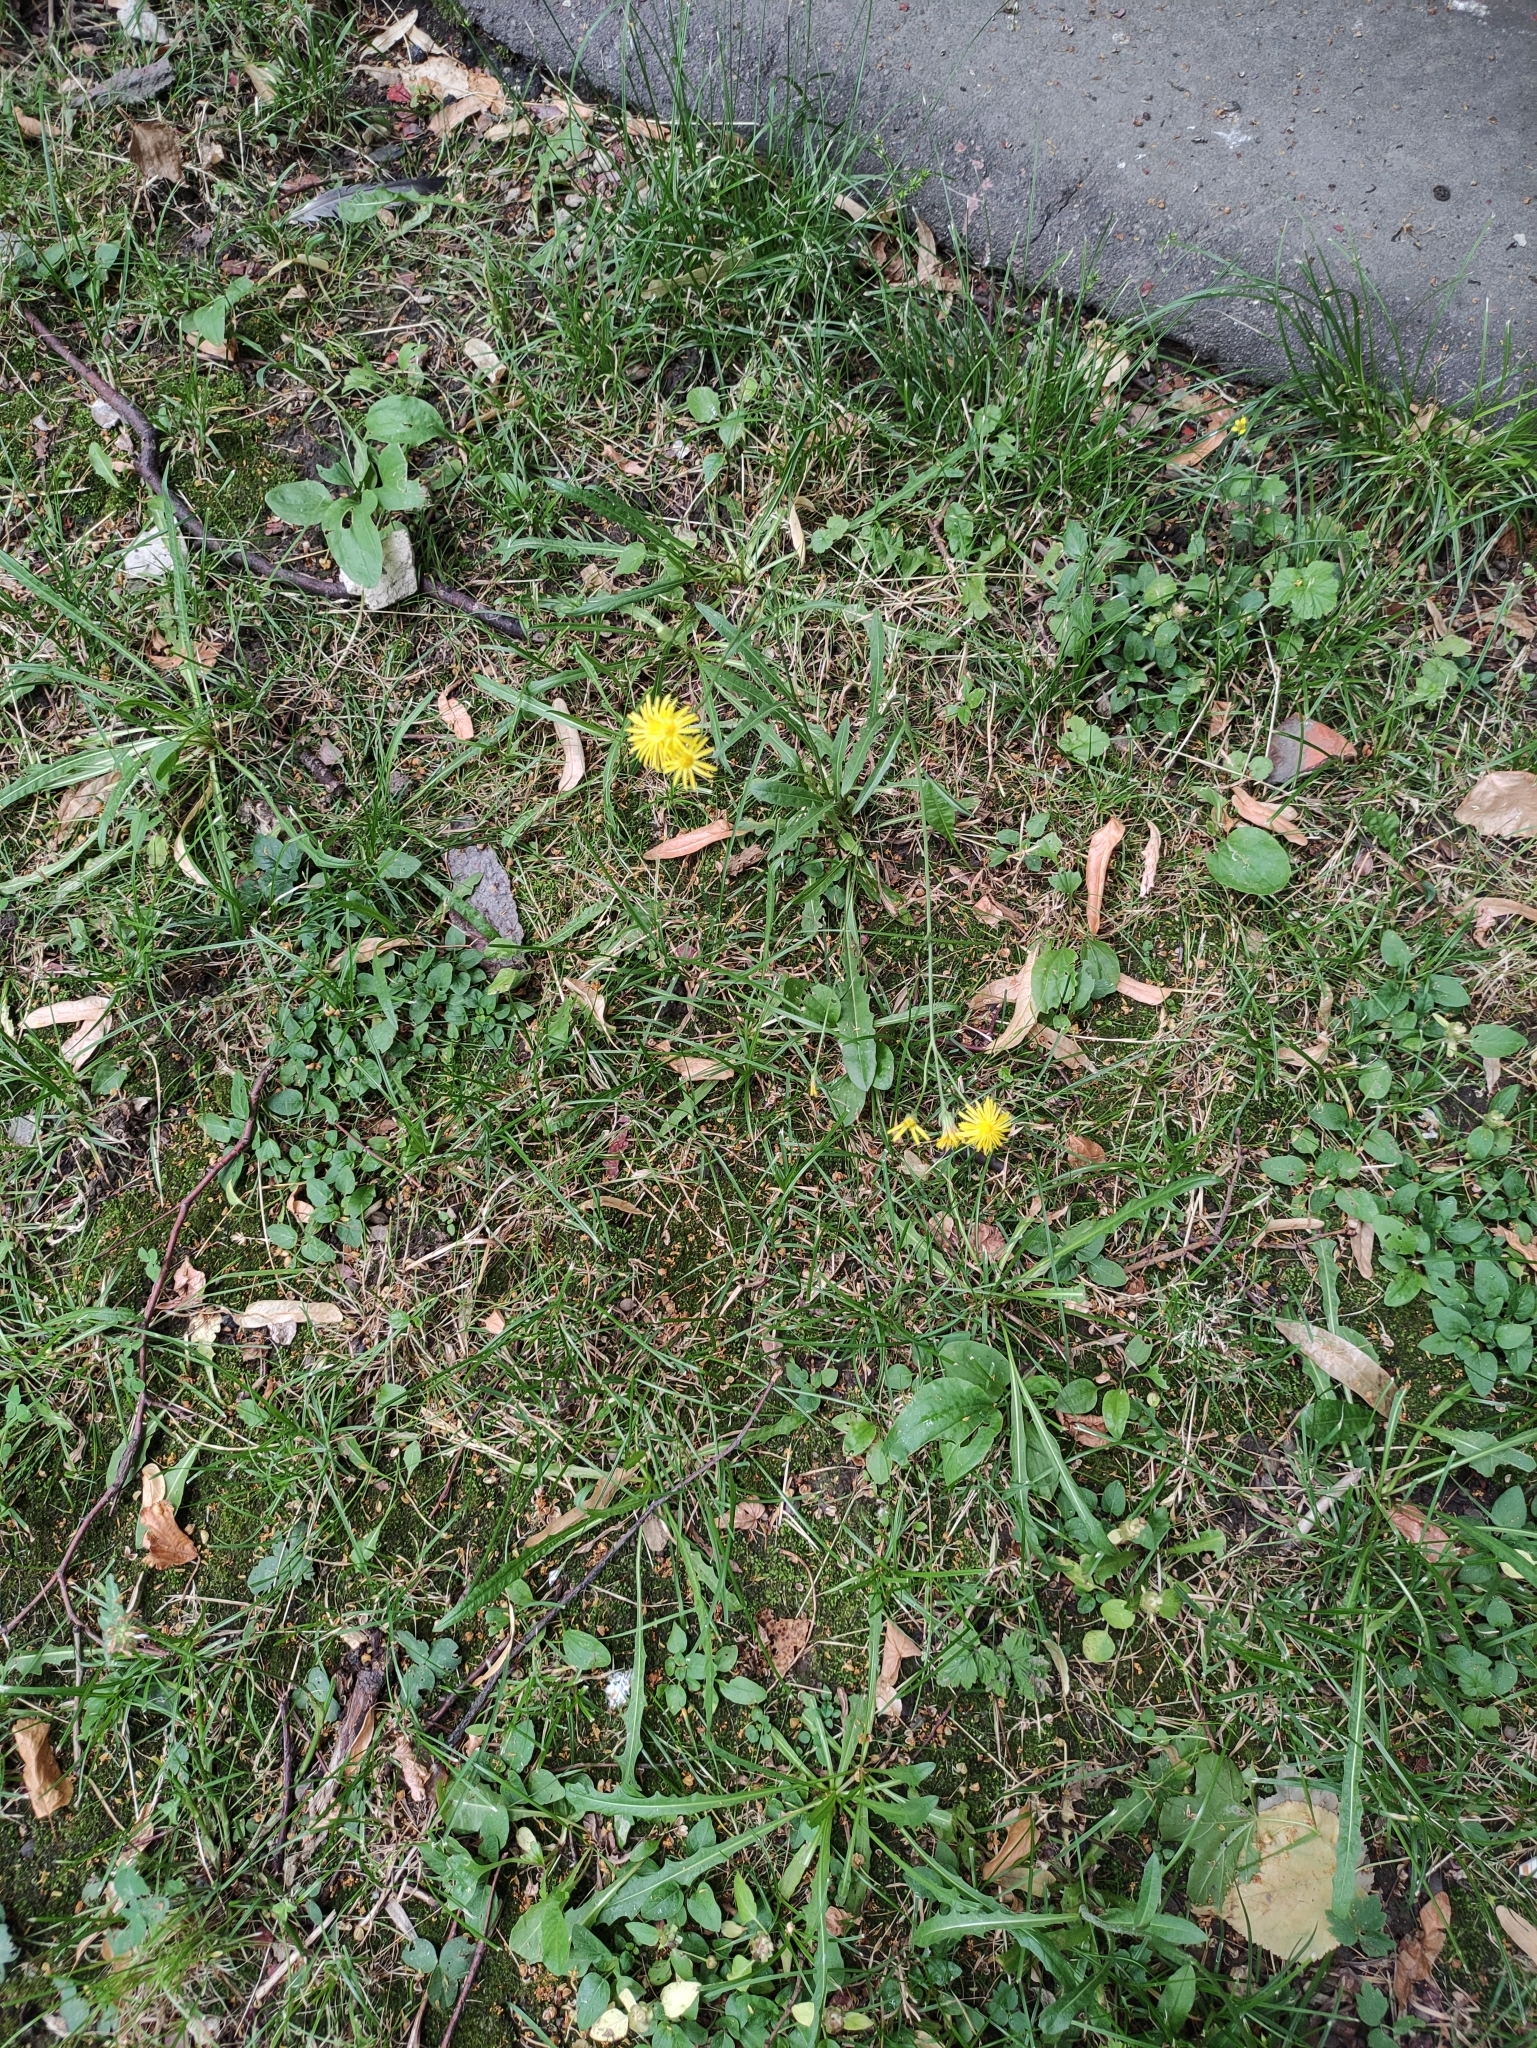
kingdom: Plantae
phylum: Tracheophyta
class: Magnoliopsida
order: Asterales
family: Asteraceae
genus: Crepis
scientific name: Crepis tectorum
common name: Narrow-leaved hawk's-beard
